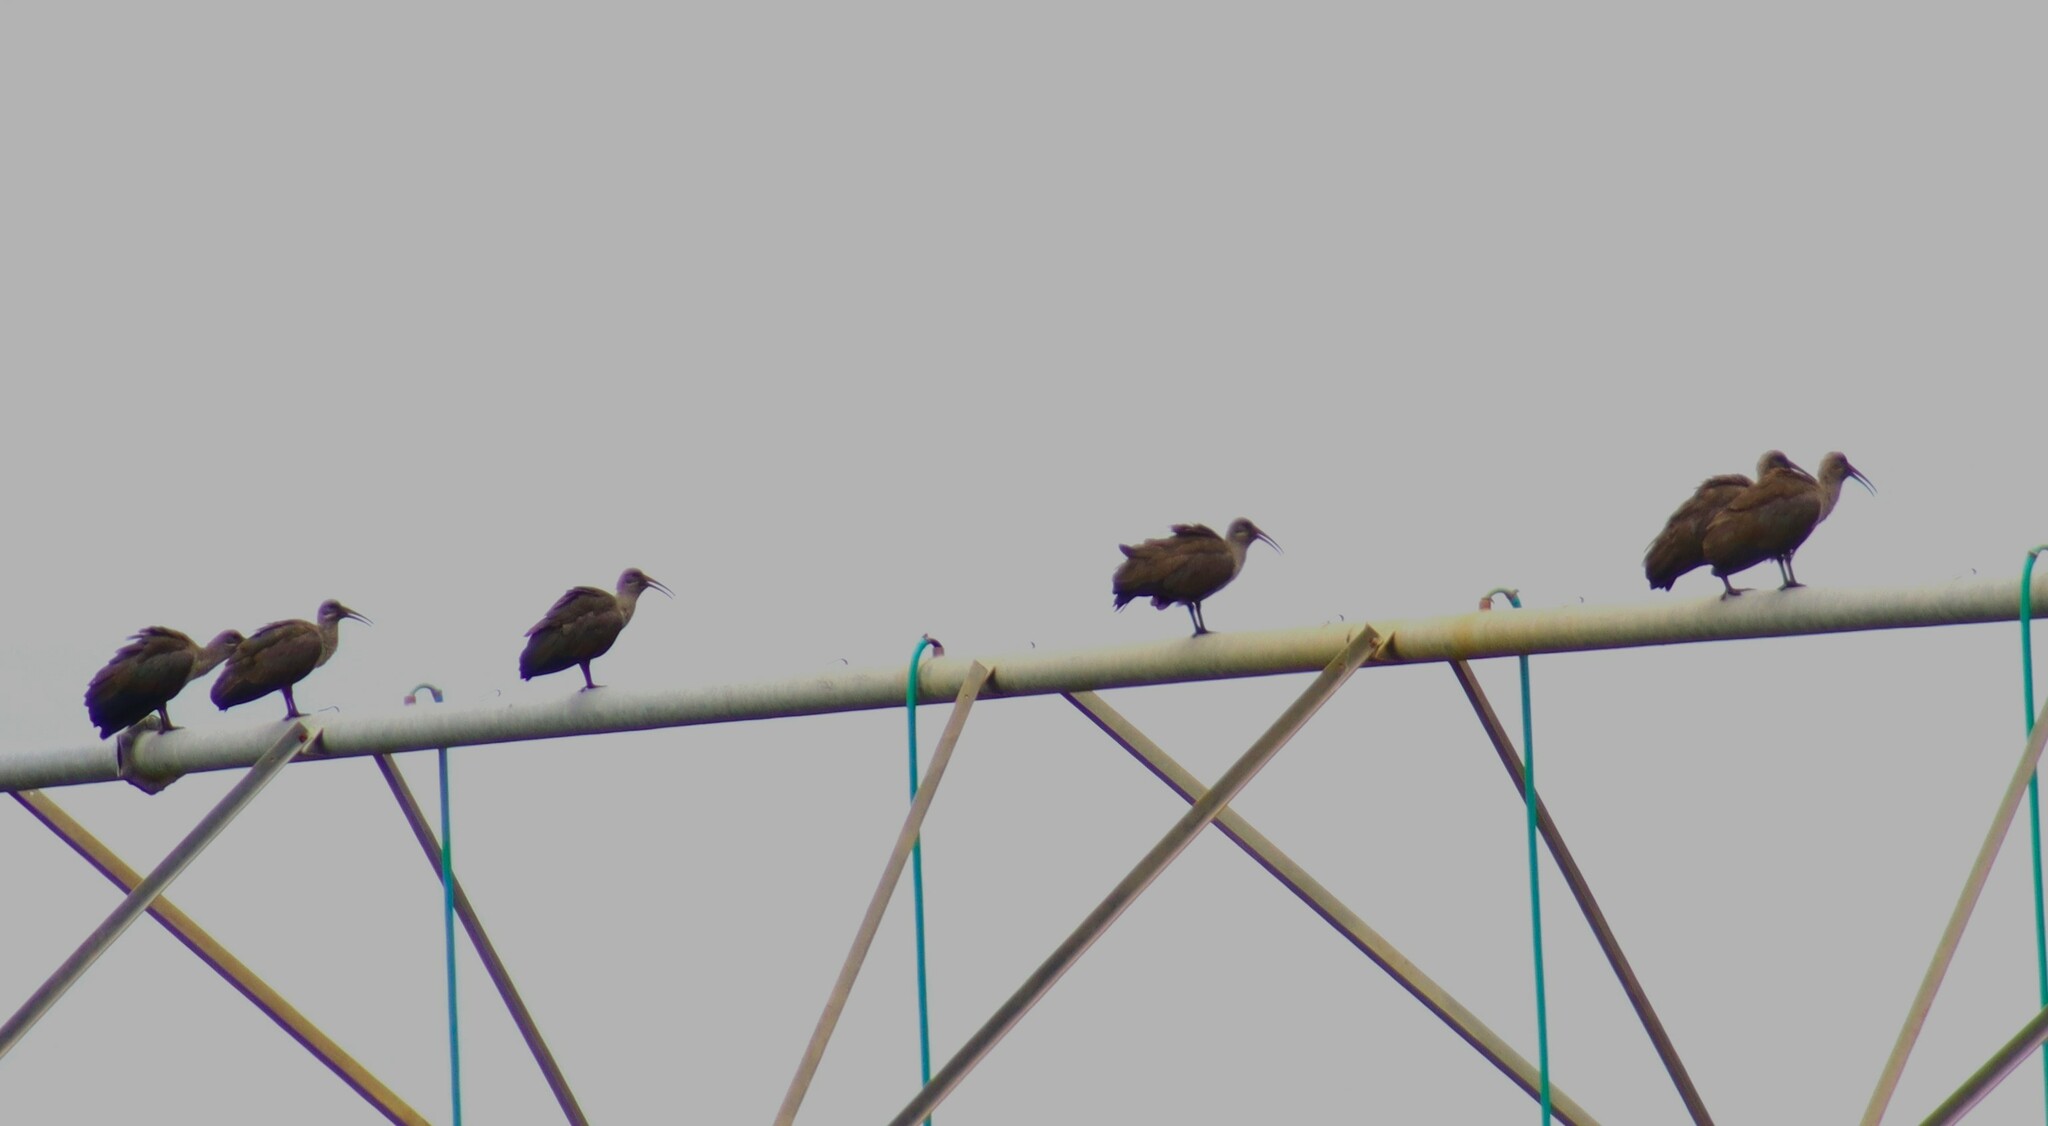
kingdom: Animalia
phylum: Chordata
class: Aves
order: Pelecaniformes
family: Threskiornithidae
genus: Bostrychia
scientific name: Bostrychia hagedash
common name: Hadada ibis
